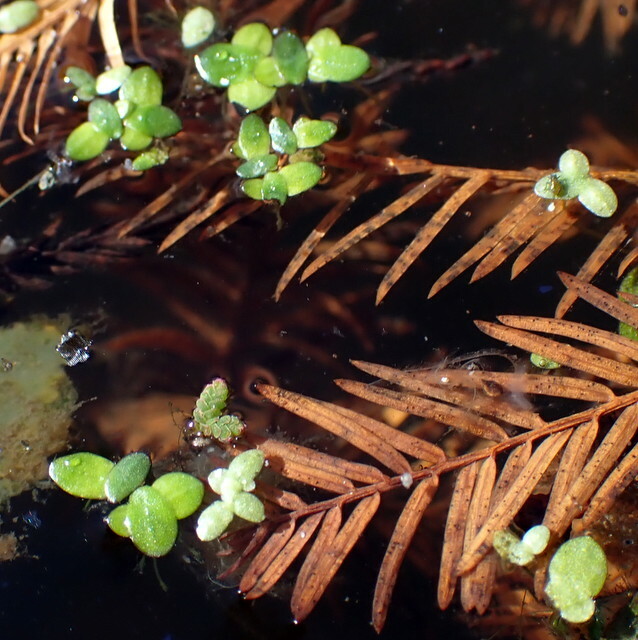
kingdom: Plantae
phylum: Tracheophyta
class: Liliopsida
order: Alismatales
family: Araceae
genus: Lemna
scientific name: Lemna minuta
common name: Least duckweed
